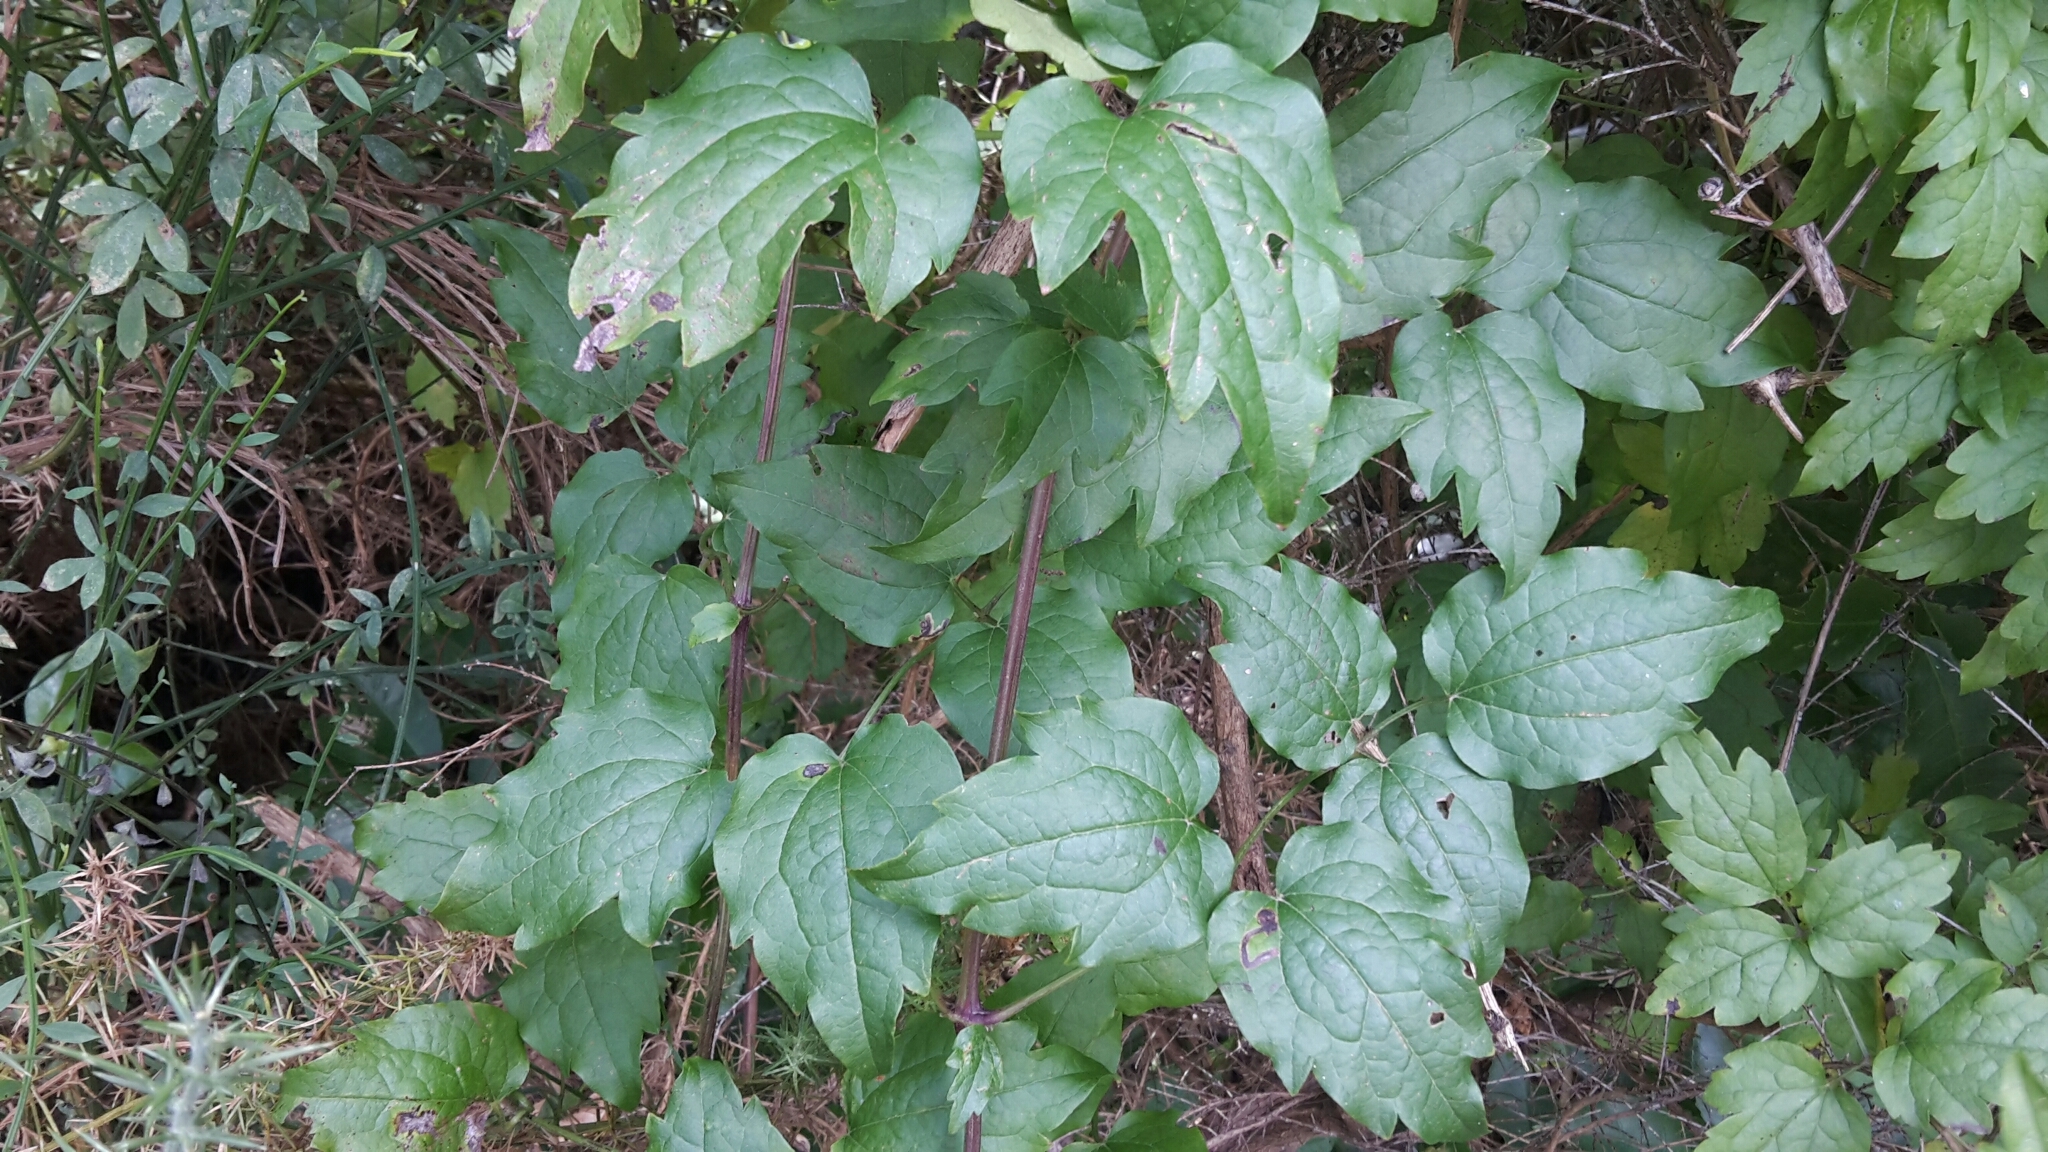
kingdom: Plantae
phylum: Tracheophyta
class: Magnoliopsida
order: Ranunculales
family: Ranunculaceae
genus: Clematis
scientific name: Clematis vitalba
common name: Evergreen clematis
